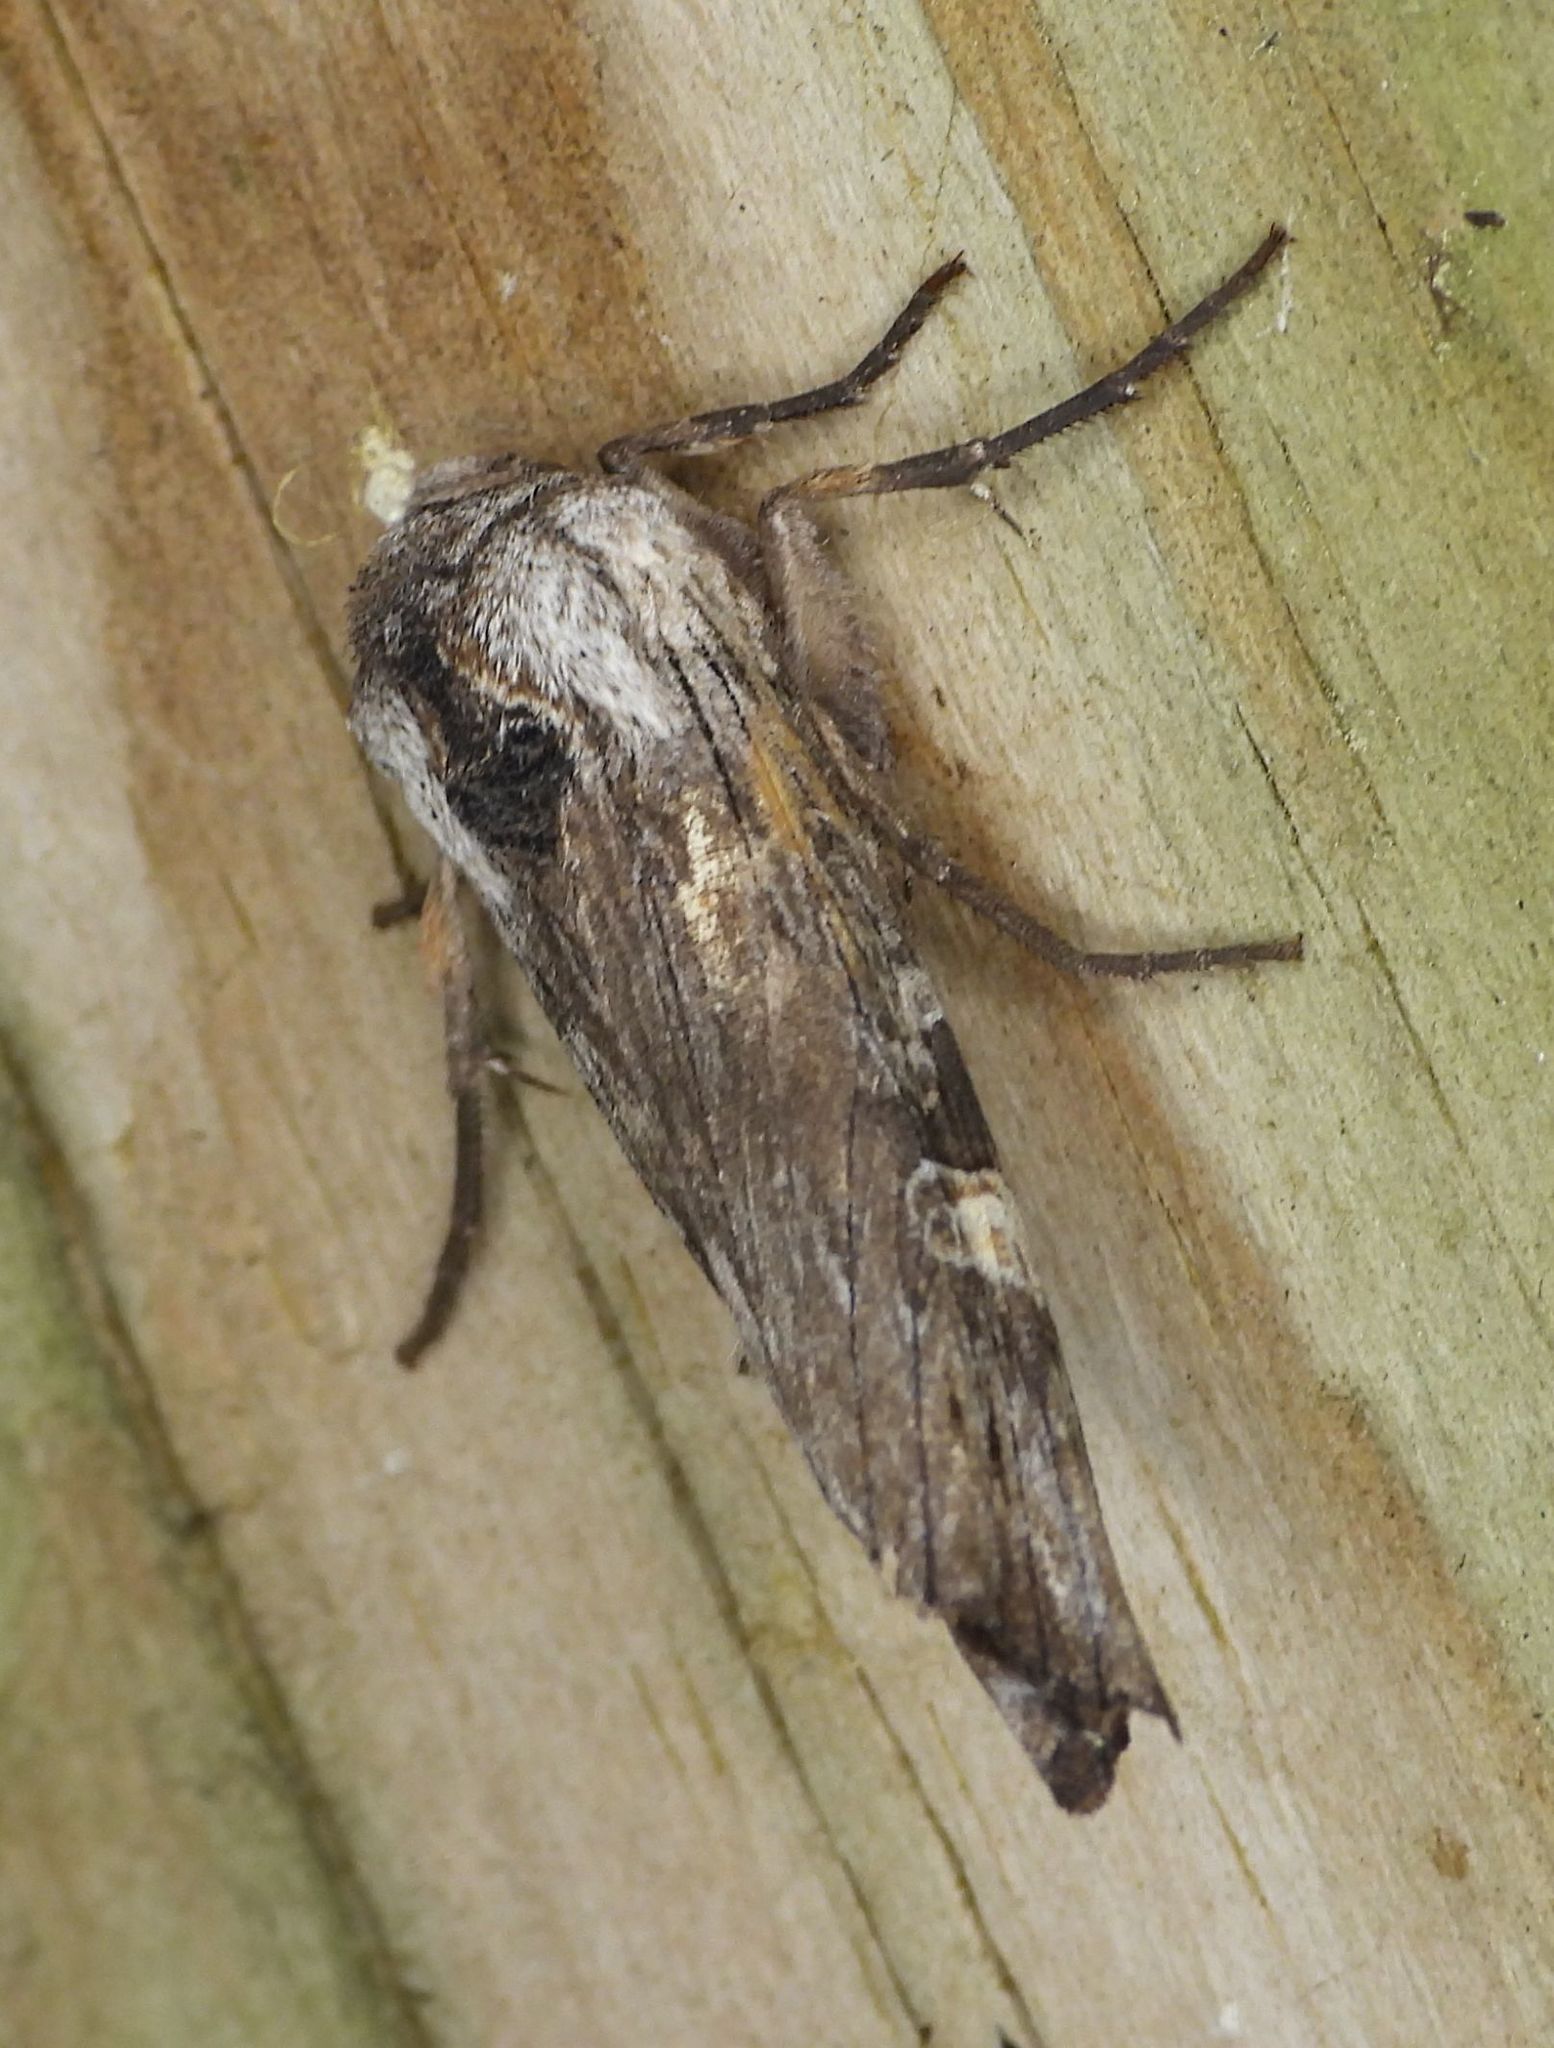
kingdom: Animalia
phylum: Arthropoda
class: Insecta
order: Lepidoptera
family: Noctuidae
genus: Xylena
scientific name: Xylena germana
